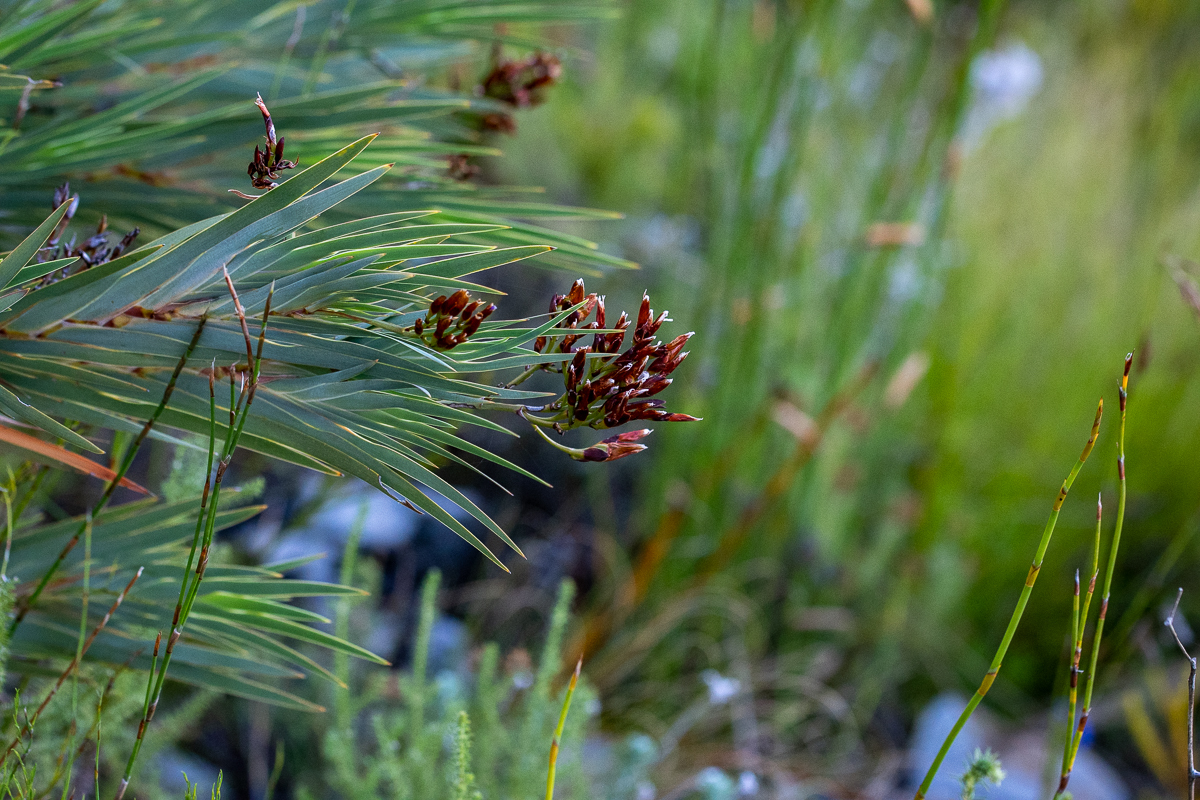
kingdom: Plantae
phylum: Tracheophyta
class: Liliopsida
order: Asparagales
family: Iridaceae
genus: Nivenia
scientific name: Nivenia stokoei
